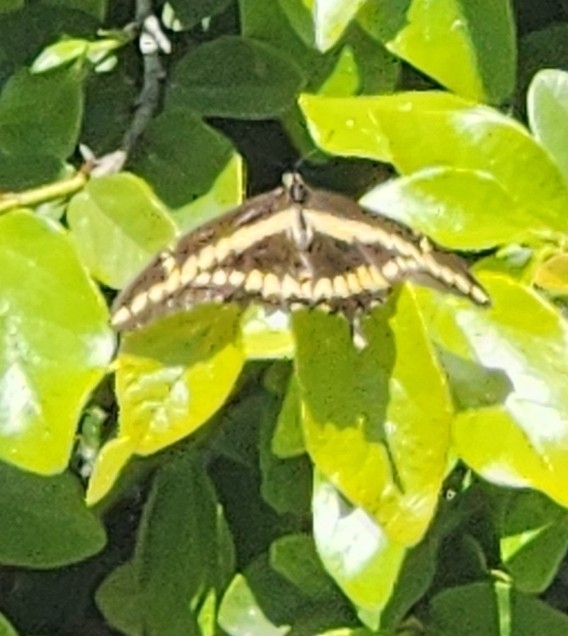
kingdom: Animalia
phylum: Arthropoda
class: Insecta
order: Lepidoptera
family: Papilionidae
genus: Papilio
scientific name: Papilio rumiko
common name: Western giant swallowtail
